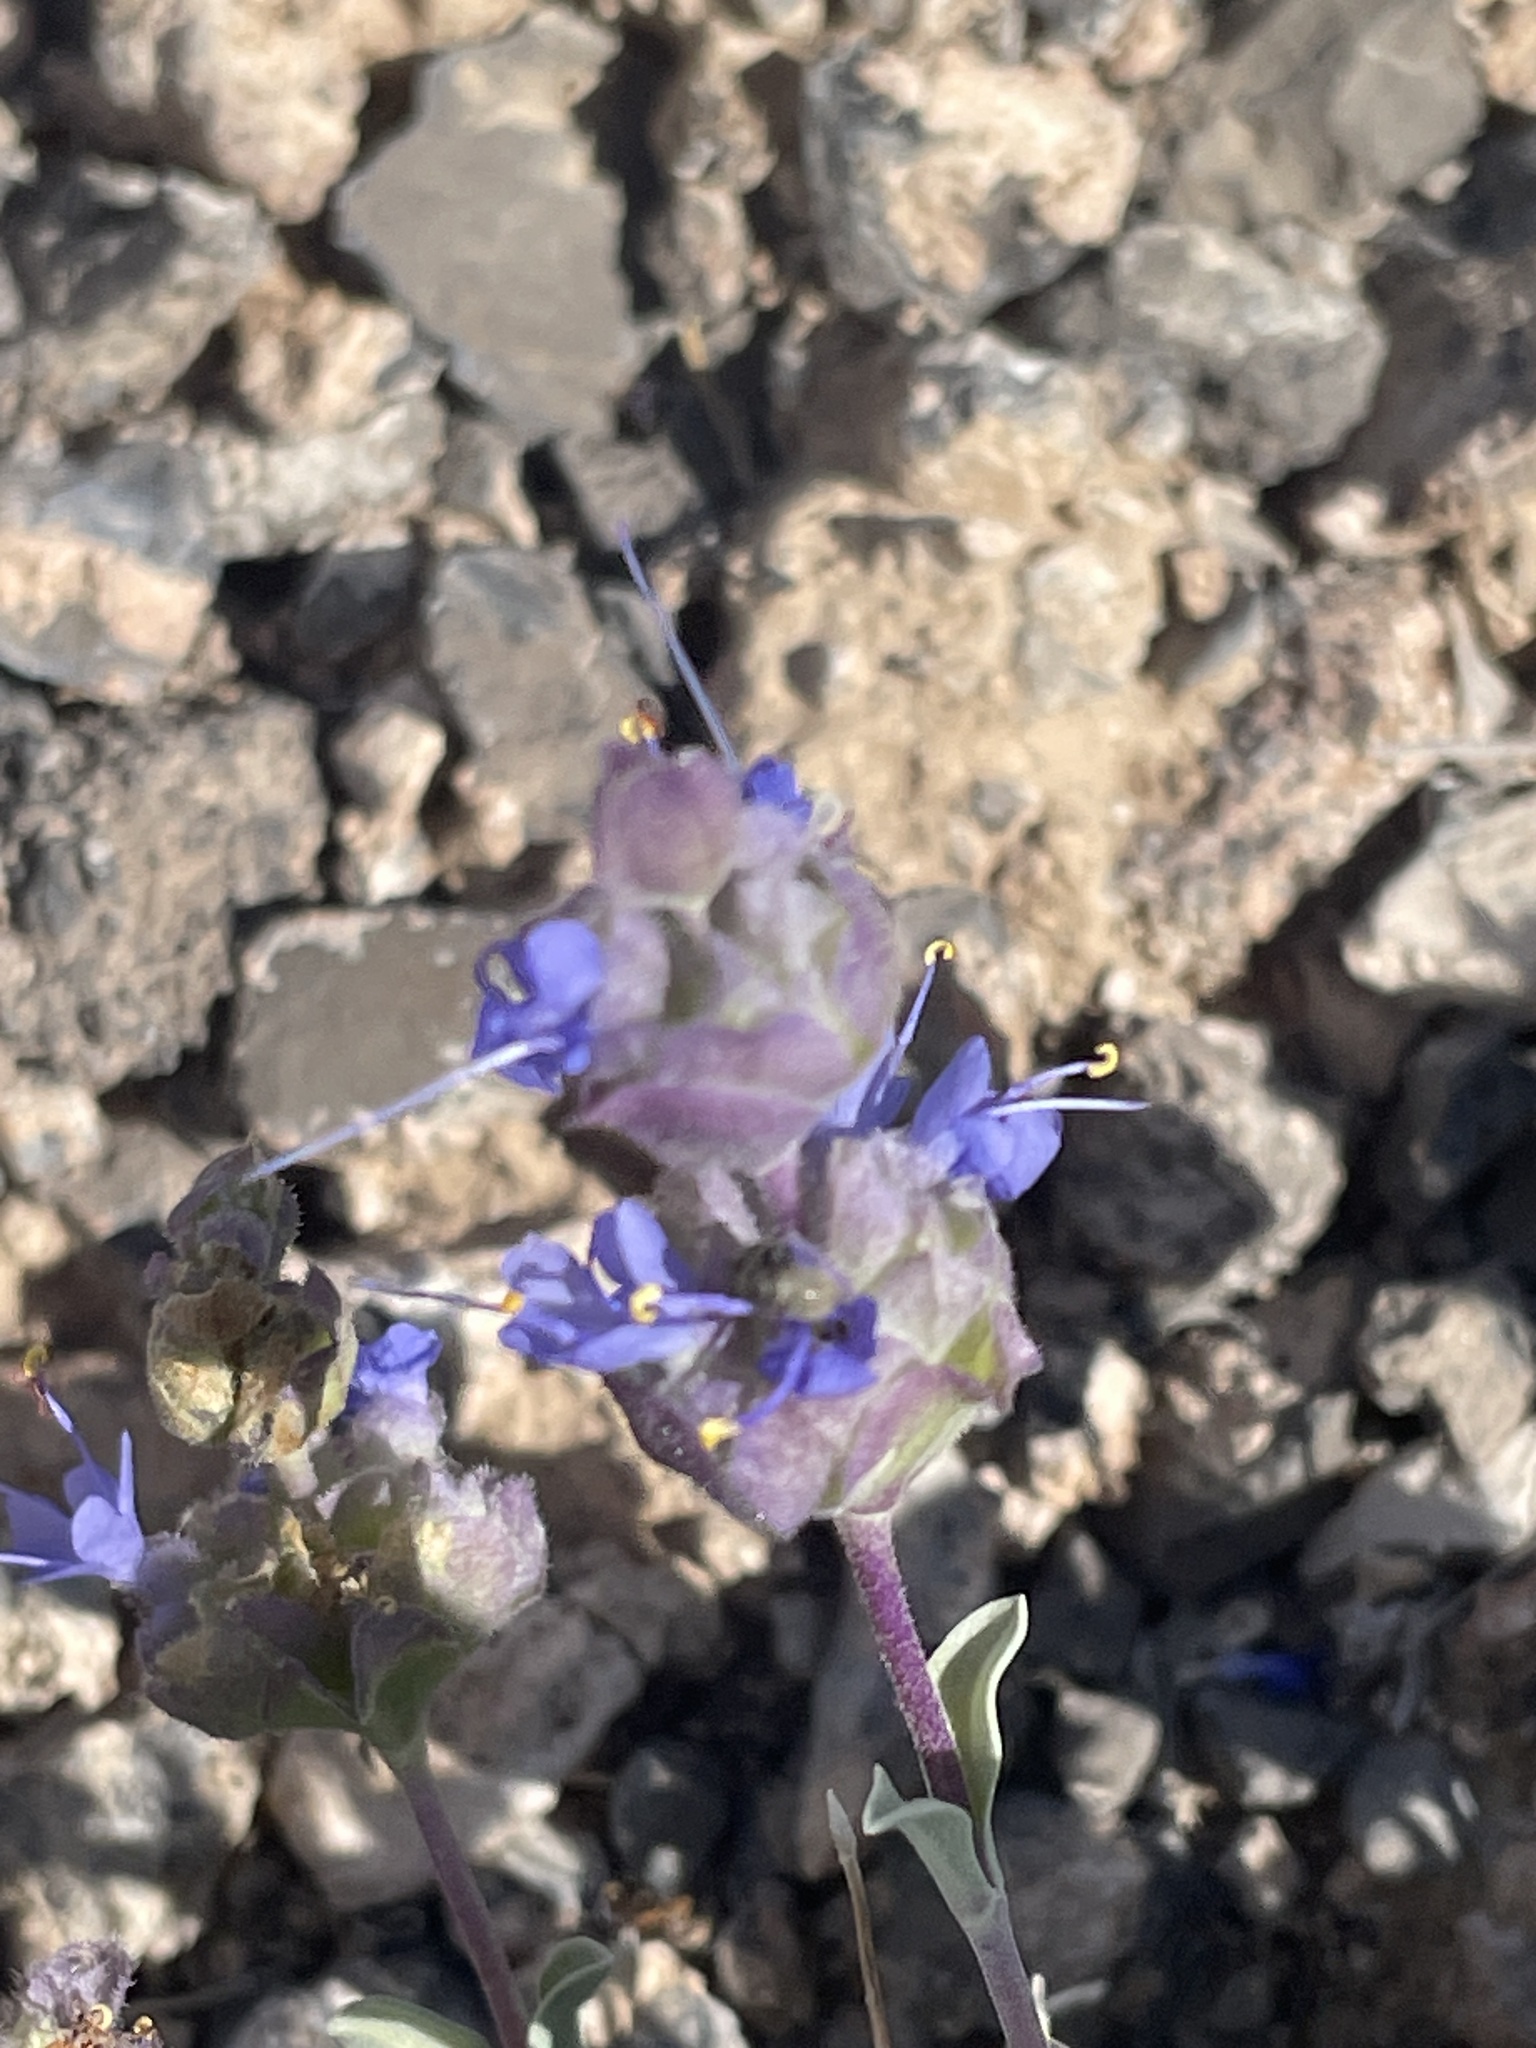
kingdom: Plantae
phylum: Tracheophyta
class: Magnoliopsida
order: Lamiales
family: Lamiaceae
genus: Salvia
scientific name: Salvia dorrii
